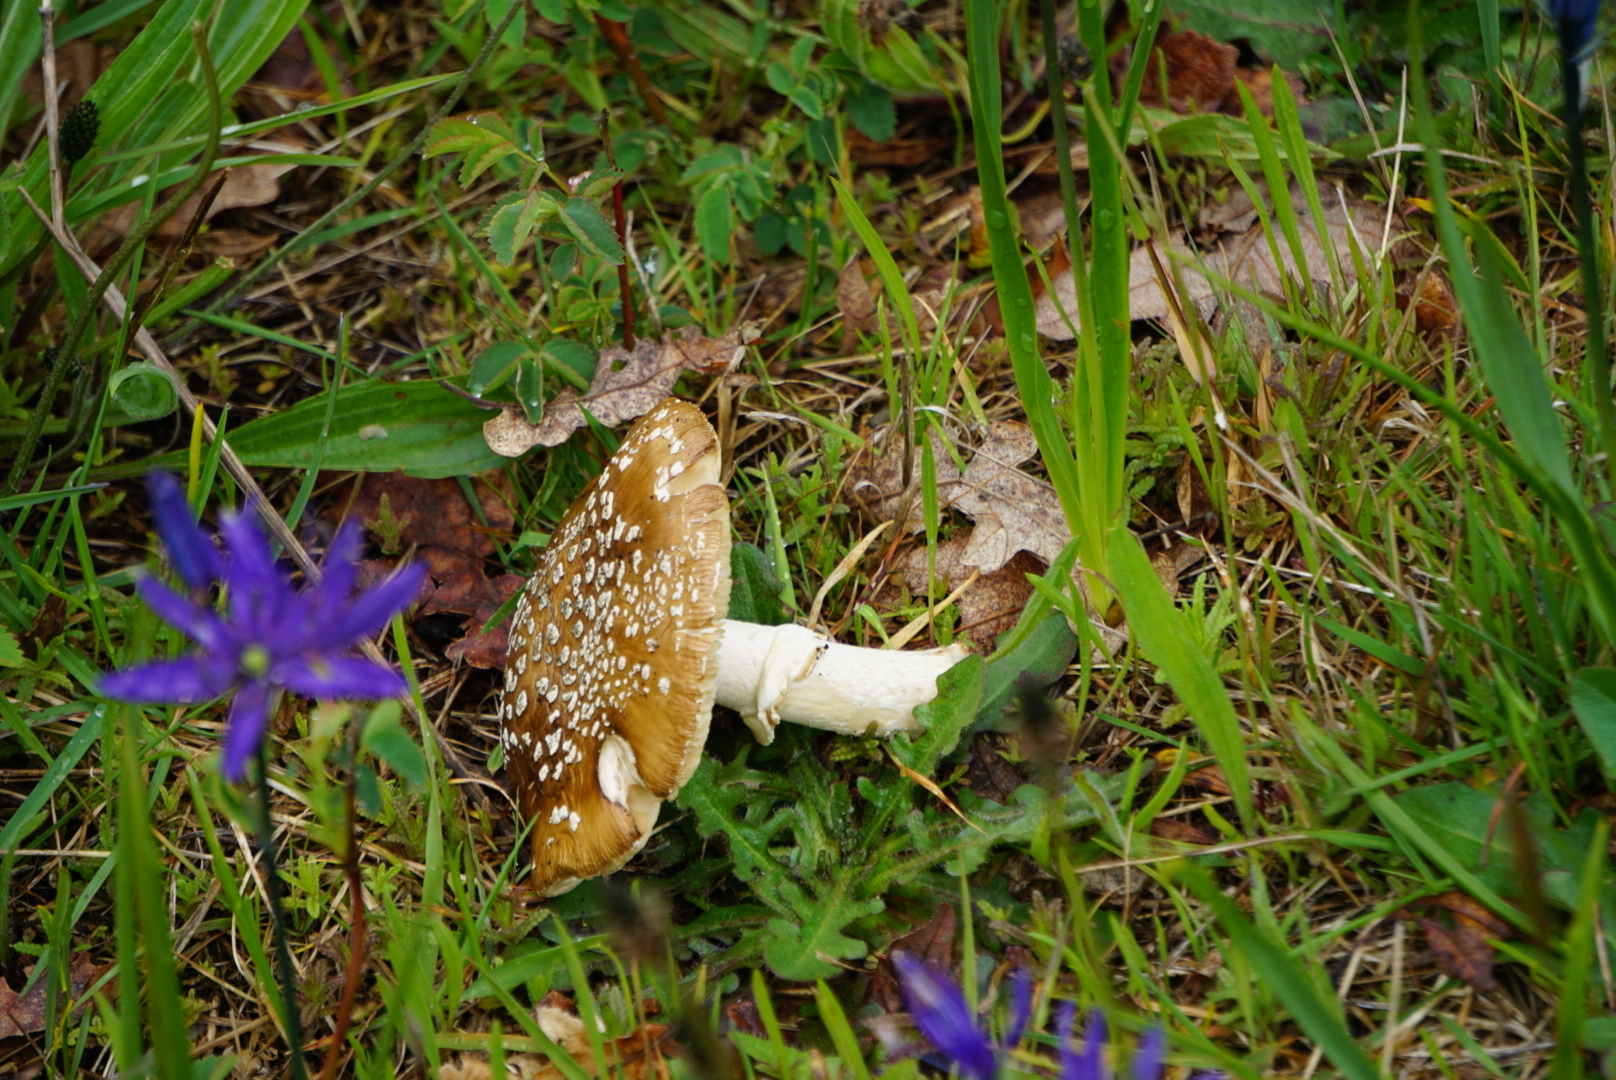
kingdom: Fungi
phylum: Basidiomycota
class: Agaricomycetes
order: Agaricales
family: Amanitaceae
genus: Amanita
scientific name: Amanita pantherinoides
